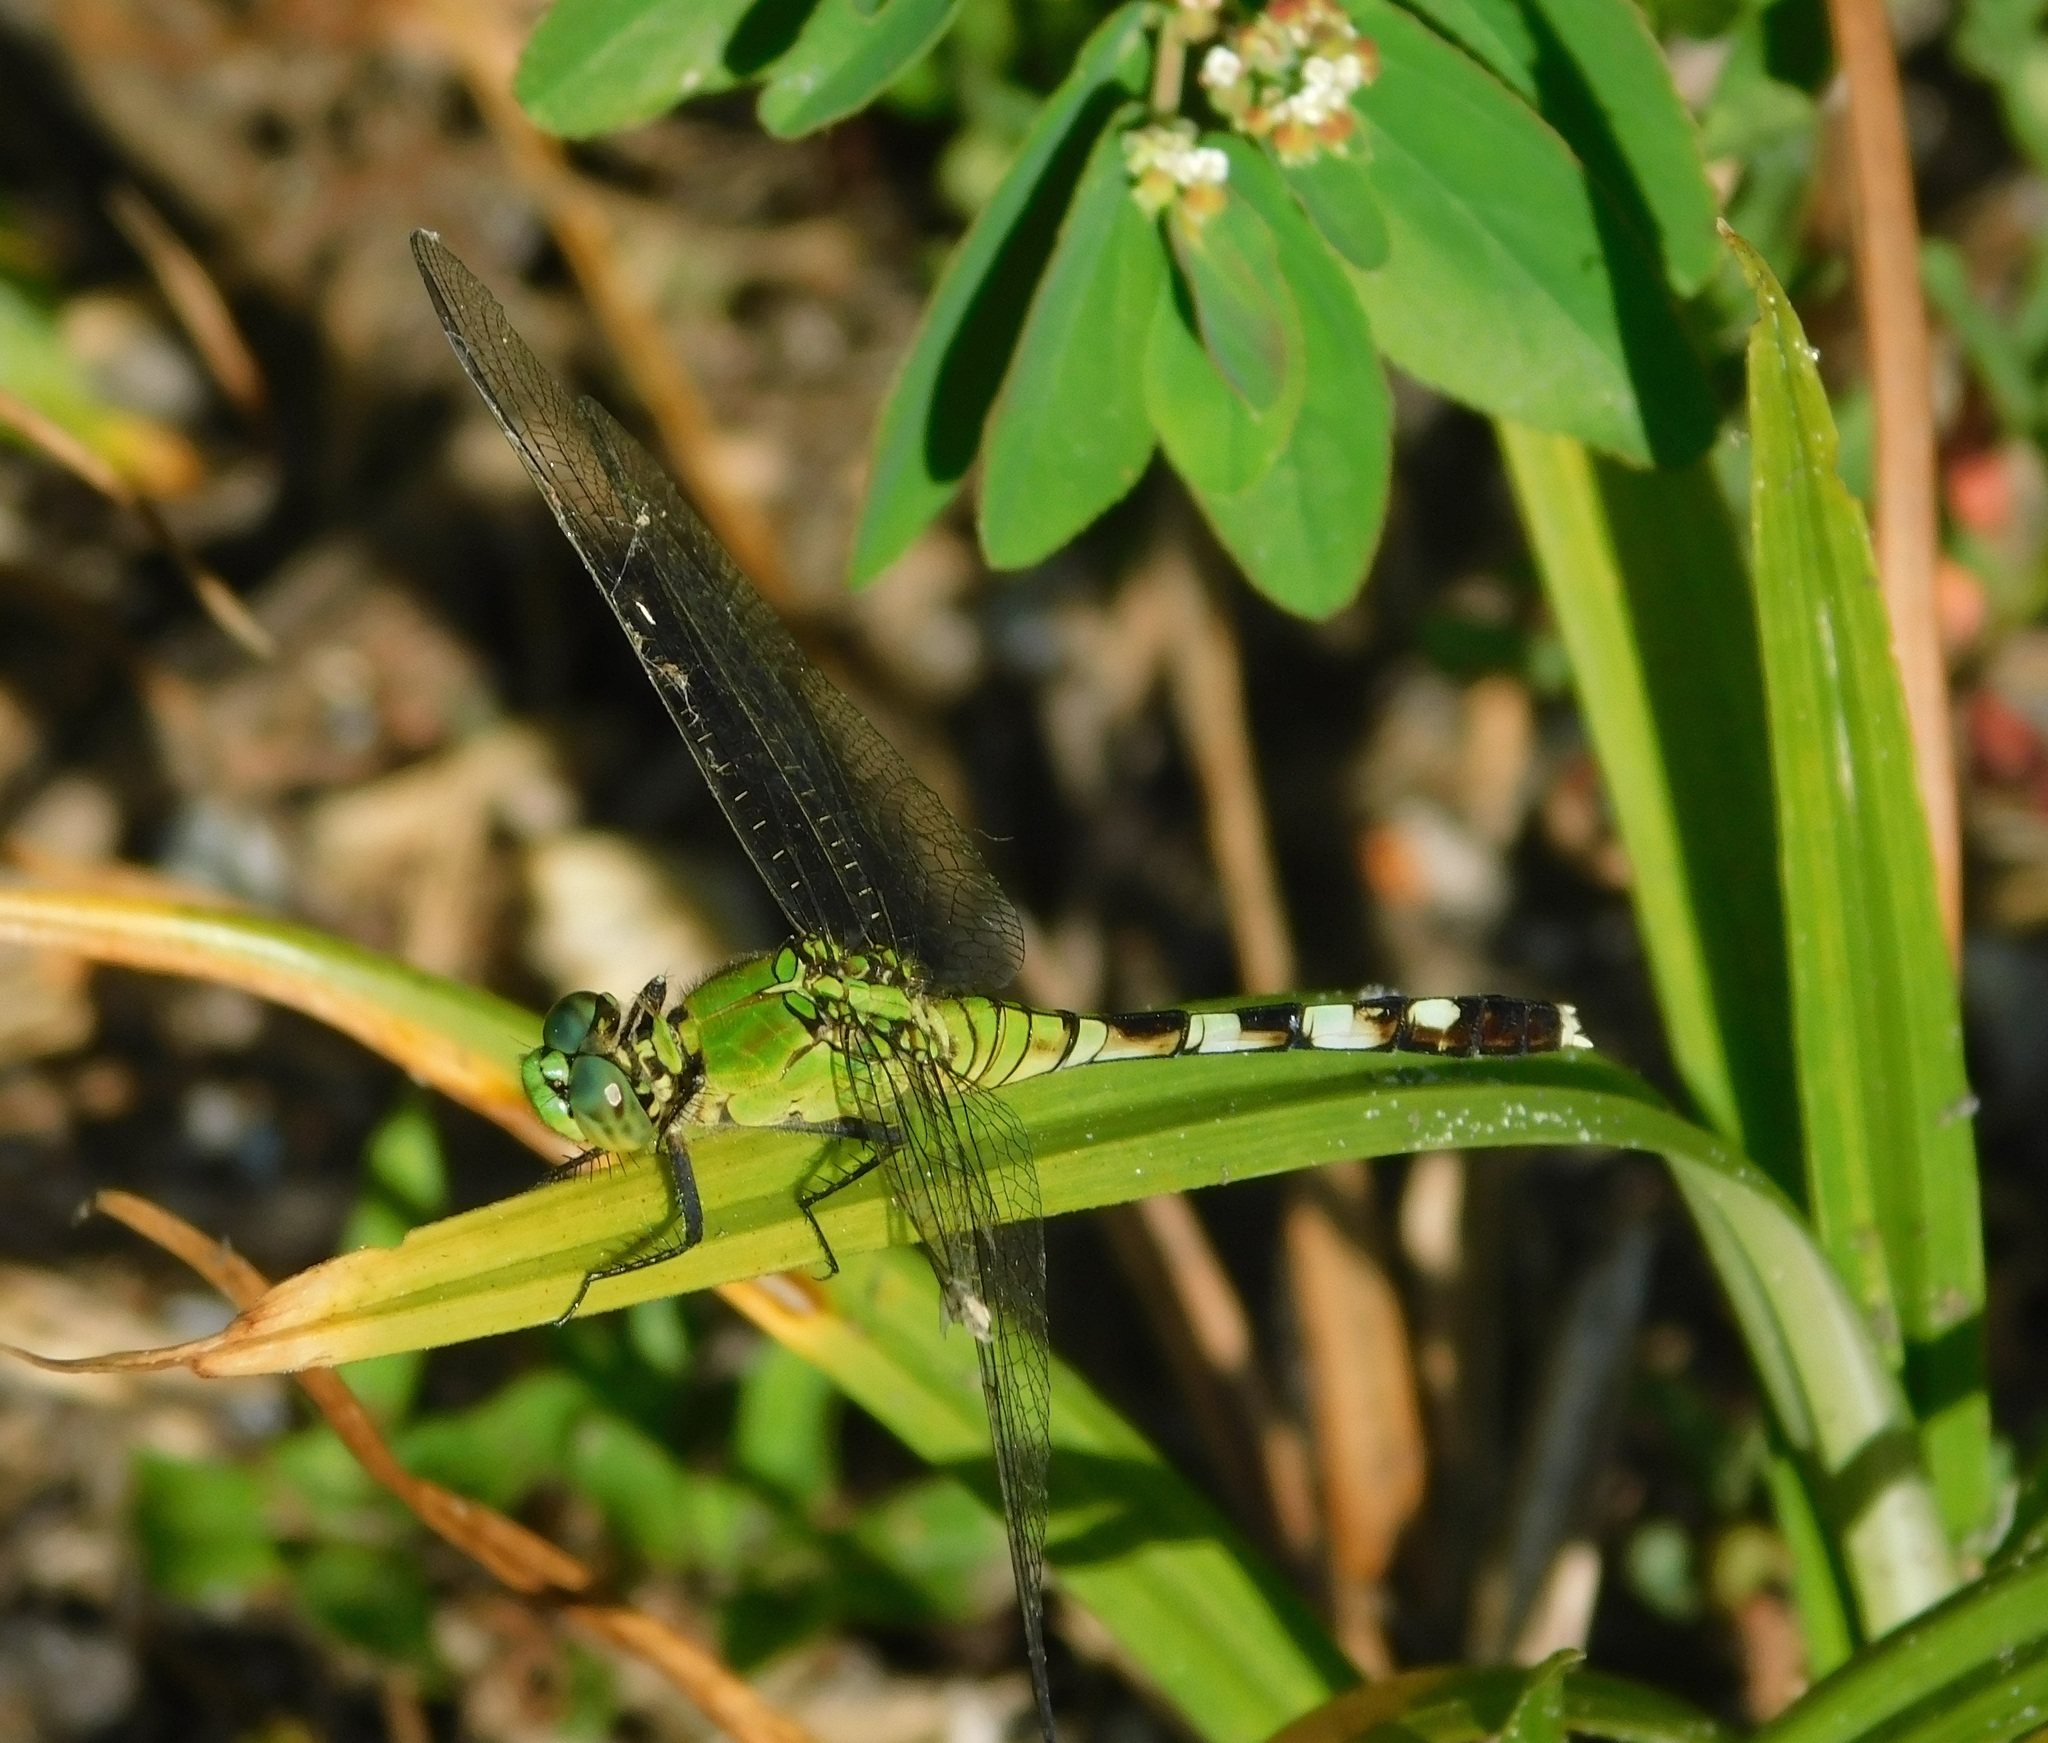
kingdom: Animalia
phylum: Arthropoda
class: Insecta
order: Odonata
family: Libellulidae
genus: Erythemis
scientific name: Erythemis simplicicollis
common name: Eastern pondhawk
